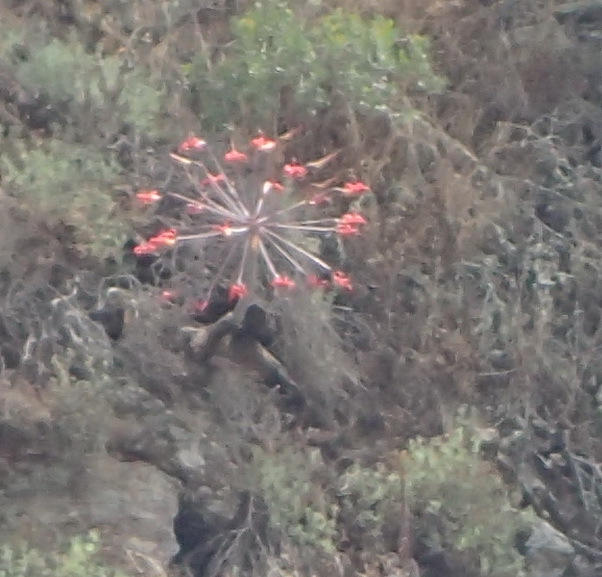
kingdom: Plantae
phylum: Tracheophyta
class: Liliopsida
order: Asparagales
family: Amaryllidaceae
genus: Brunsvigia
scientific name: Brunsvigia orientalis
